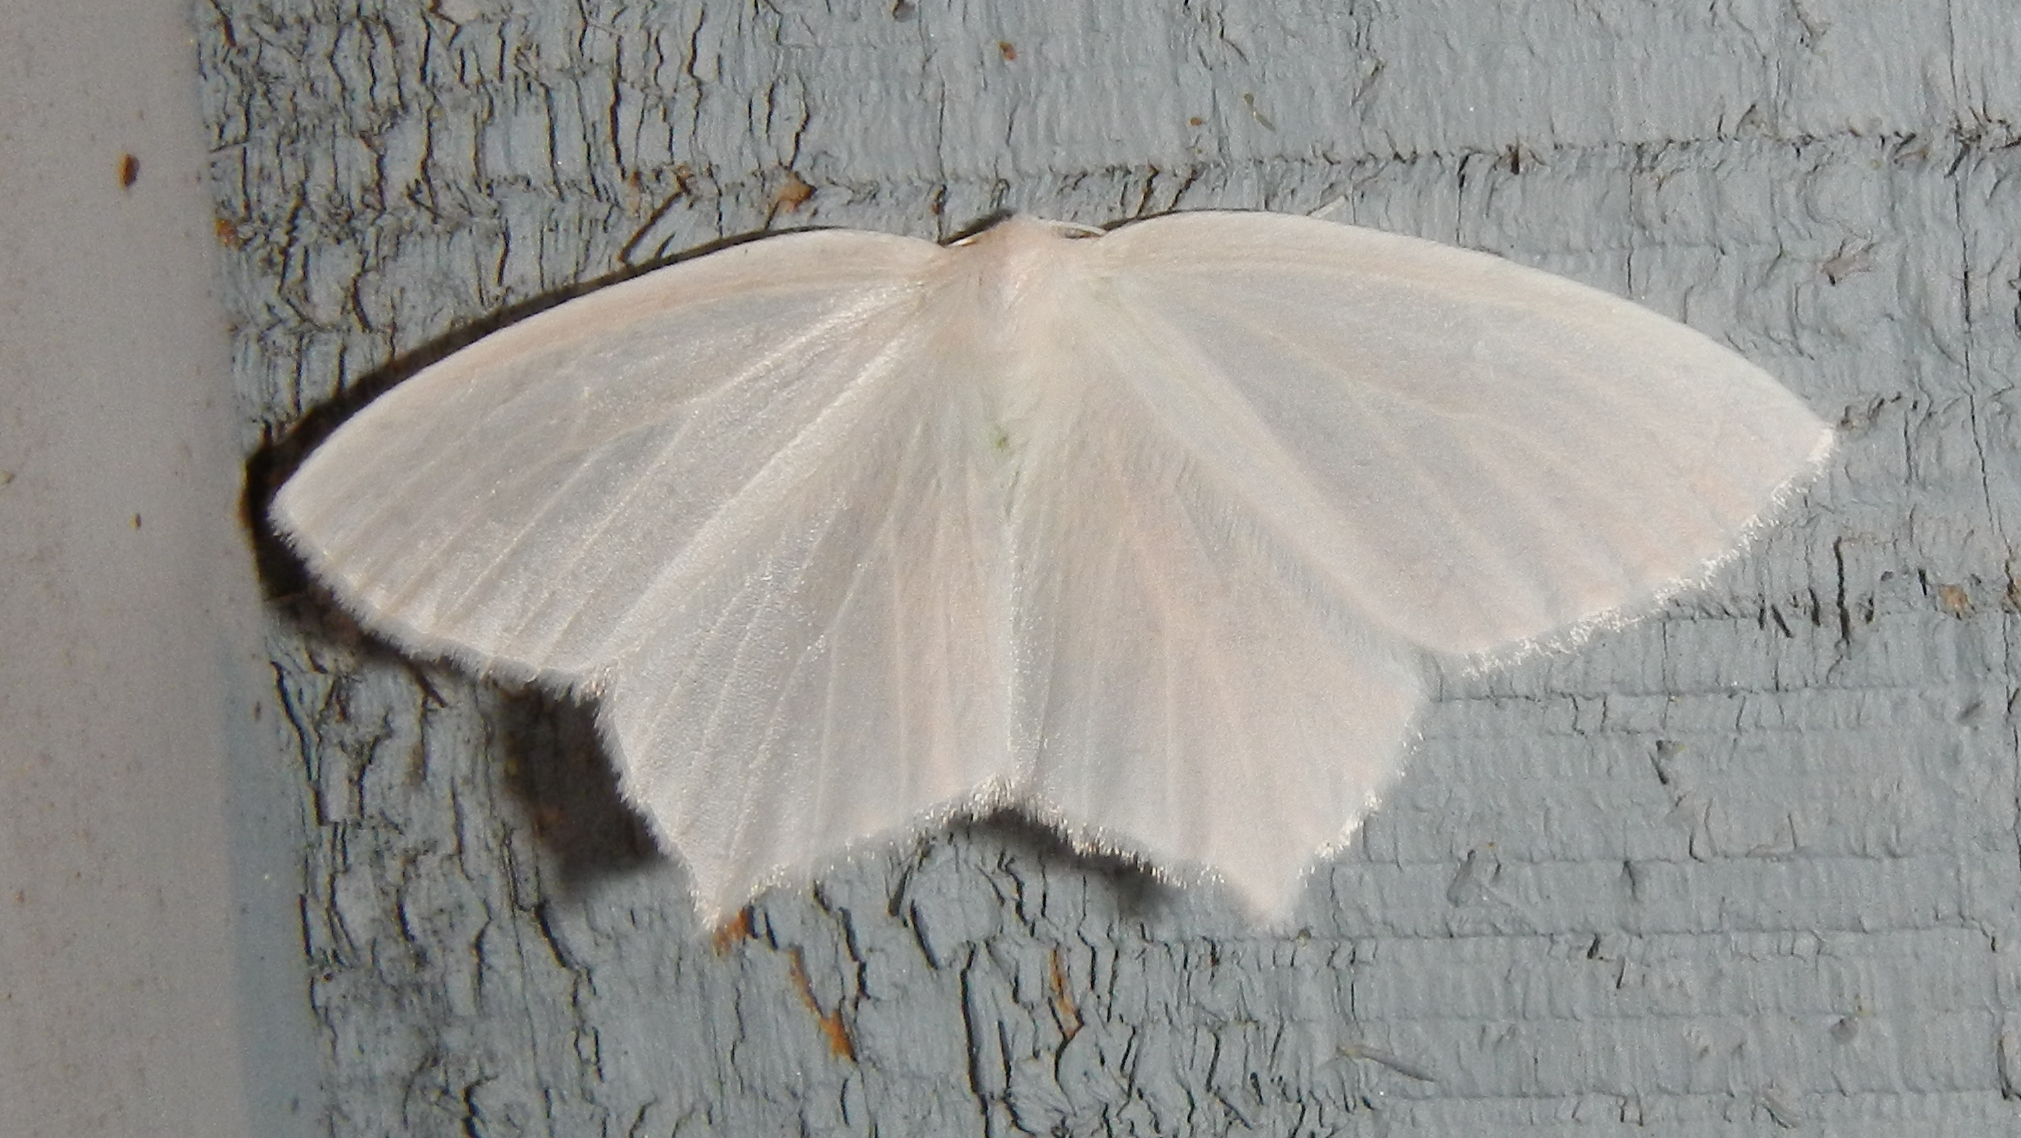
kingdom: Animalia
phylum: Arthropoda
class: Insecta
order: Lepidoptera
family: Geometridae
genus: Eugonobapta
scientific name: Eugonobapta nivosaria
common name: Snowy geometer
